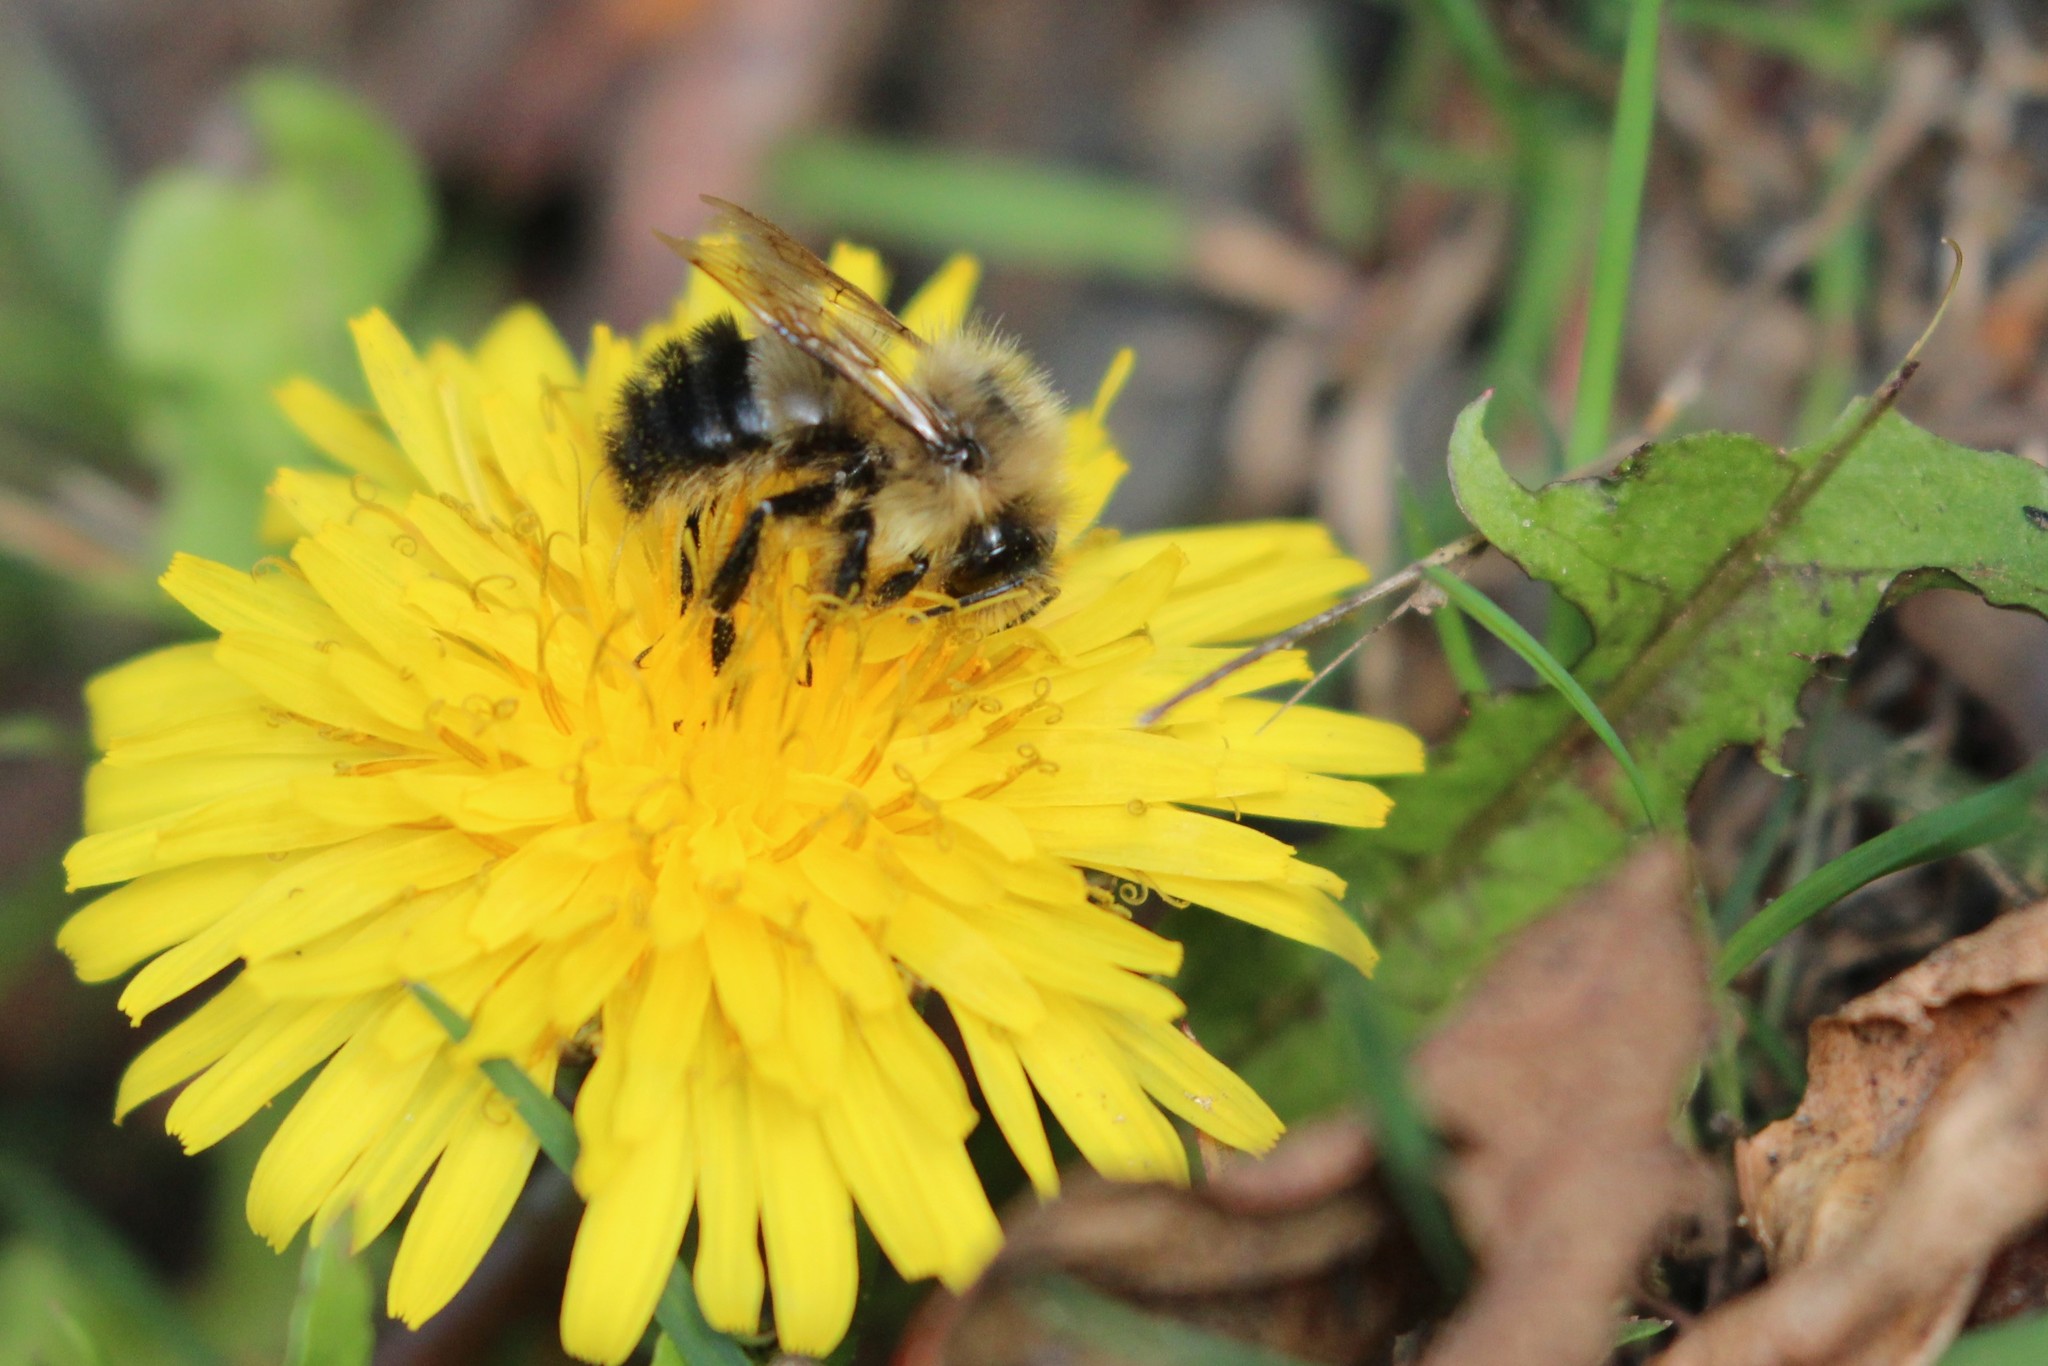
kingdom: Animalia
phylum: Arthropoda
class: Insecta
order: Hymenoptera
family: Apidae
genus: Pyrobombus
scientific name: Pyrobombus
